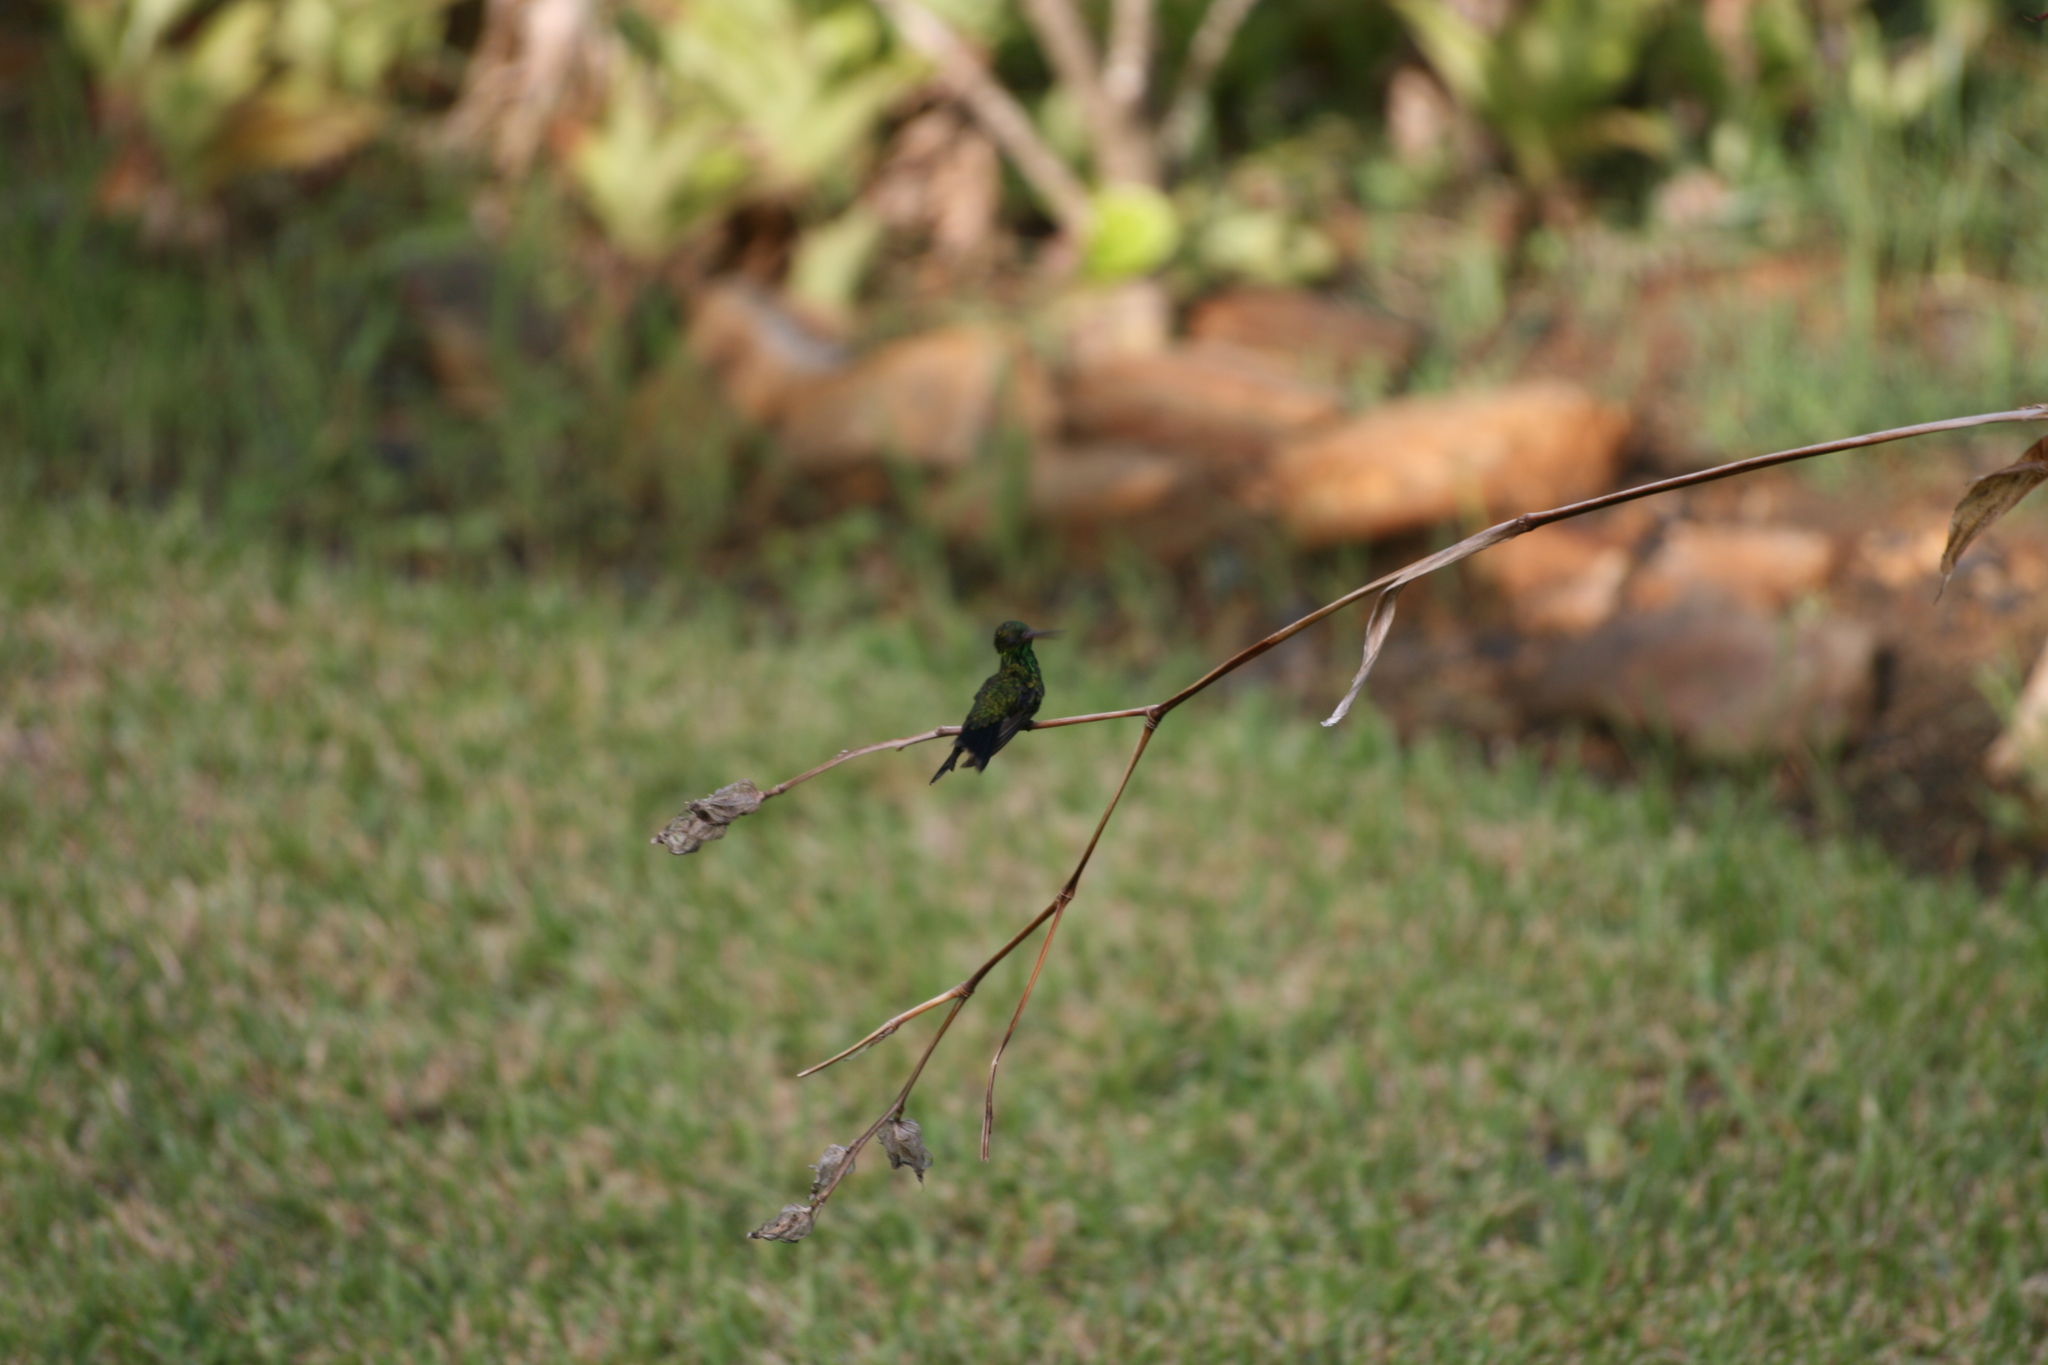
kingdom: Animalia
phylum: Chordata
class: Aves
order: Apodiformes
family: Trochilidae
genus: Cynanthus
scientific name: Cynanthus canivetii
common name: Canivet's emerald
